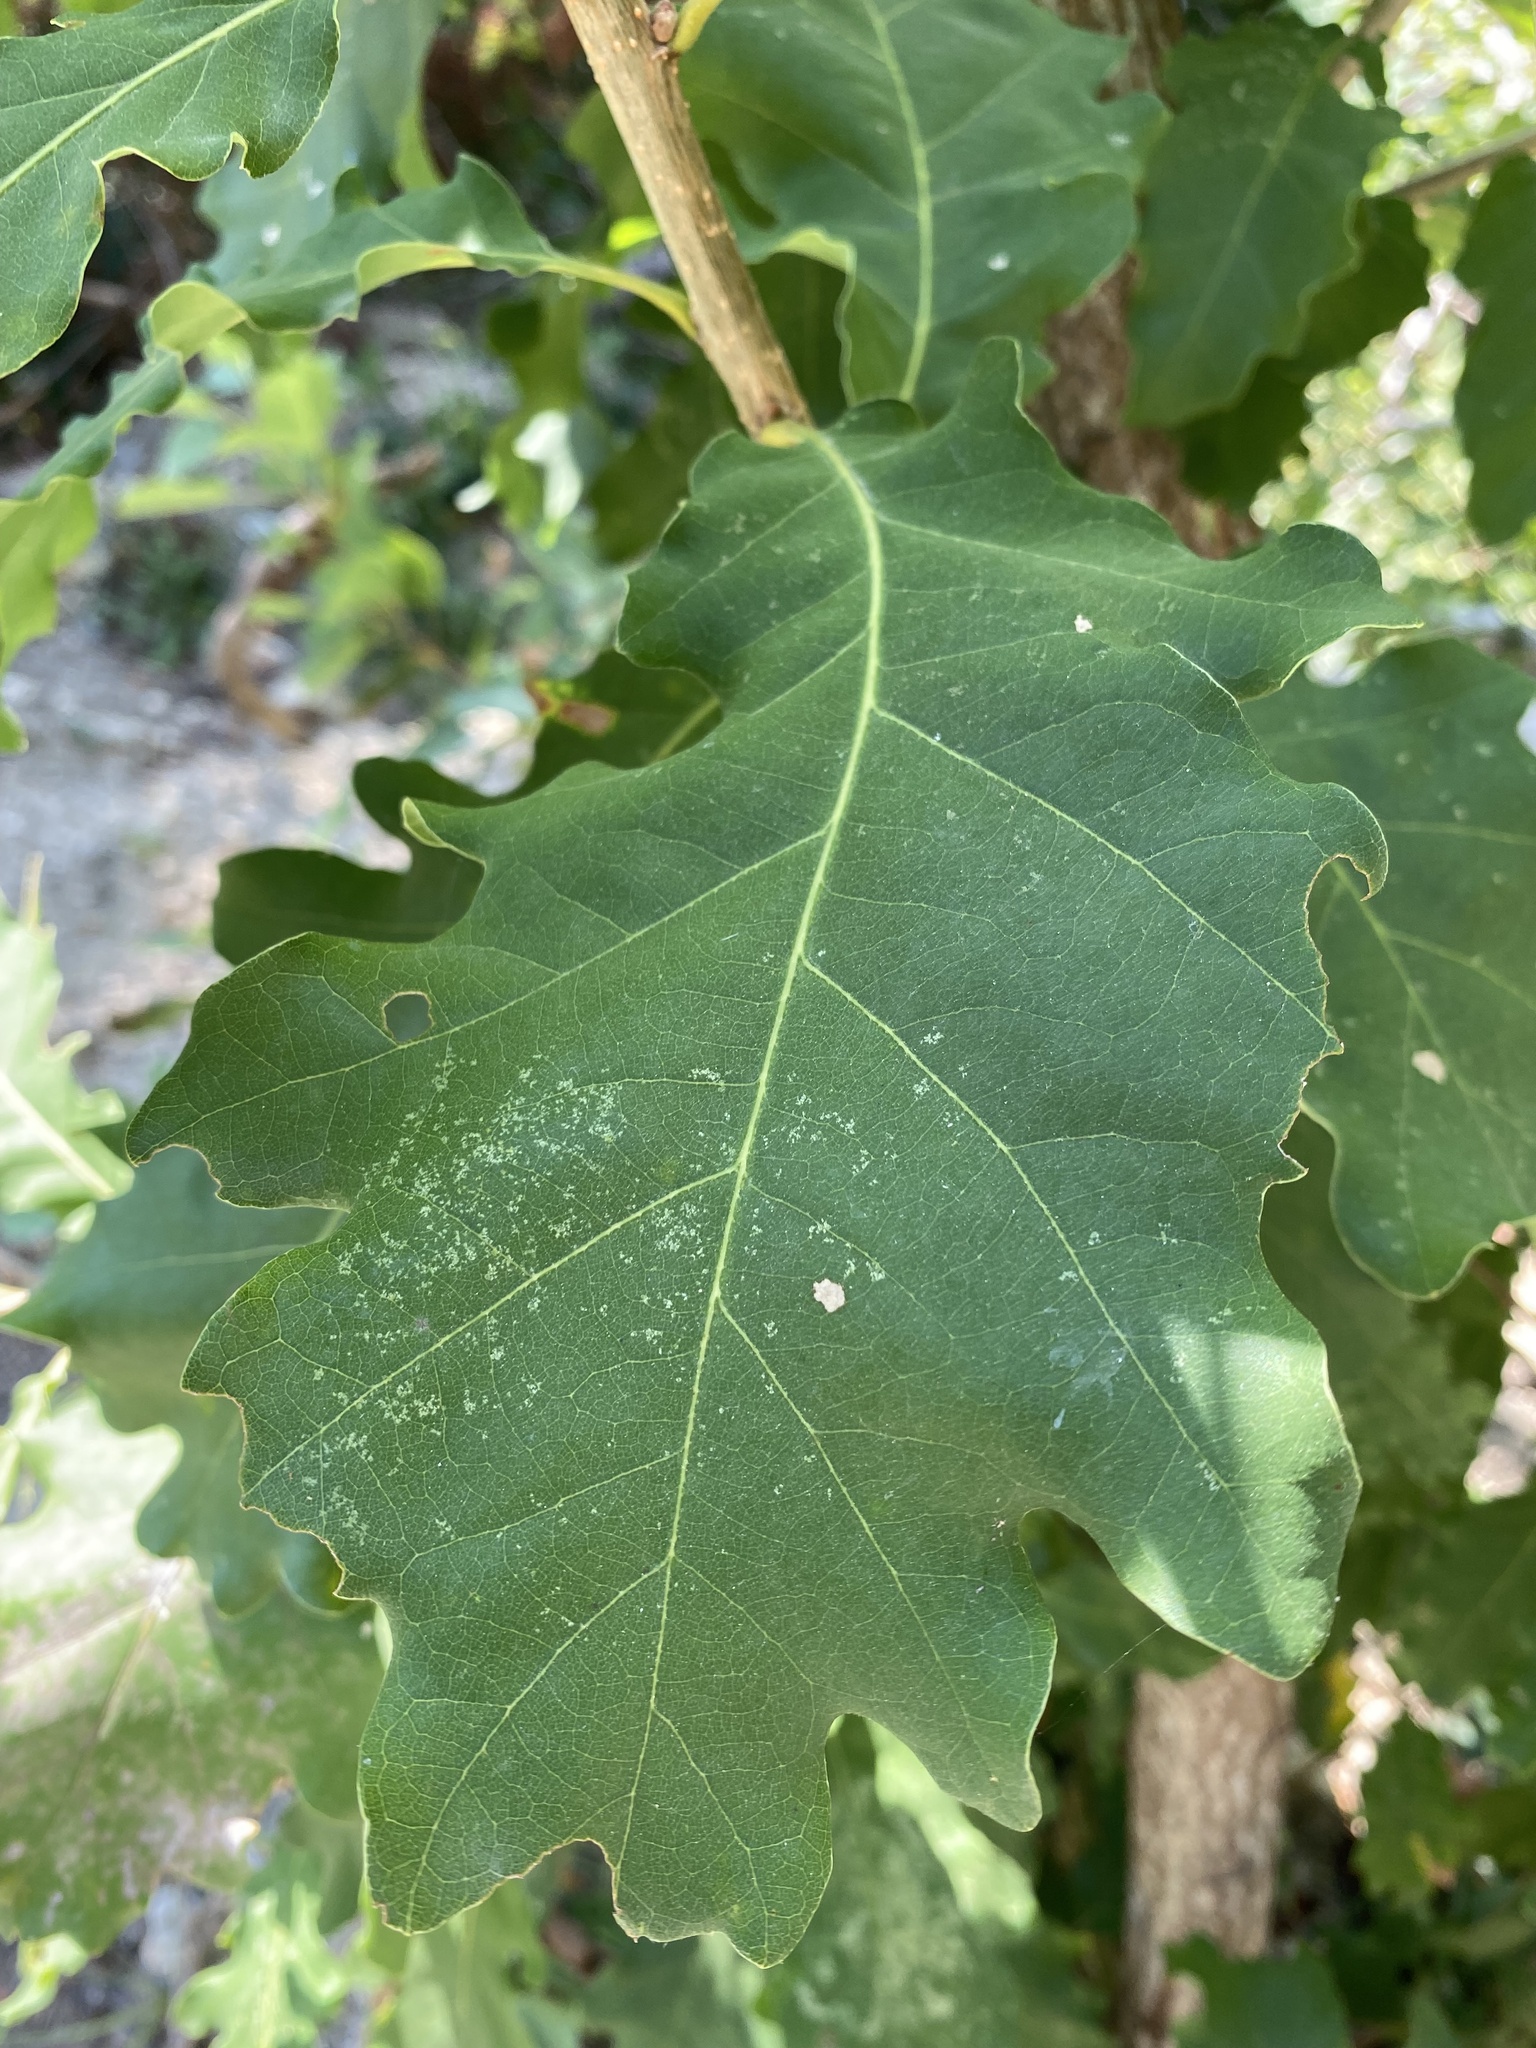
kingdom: Animalia
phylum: Arthropoda
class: Insecta
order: Hemiptera
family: Tingidae
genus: Corythucha
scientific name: Corythucha arcuata
